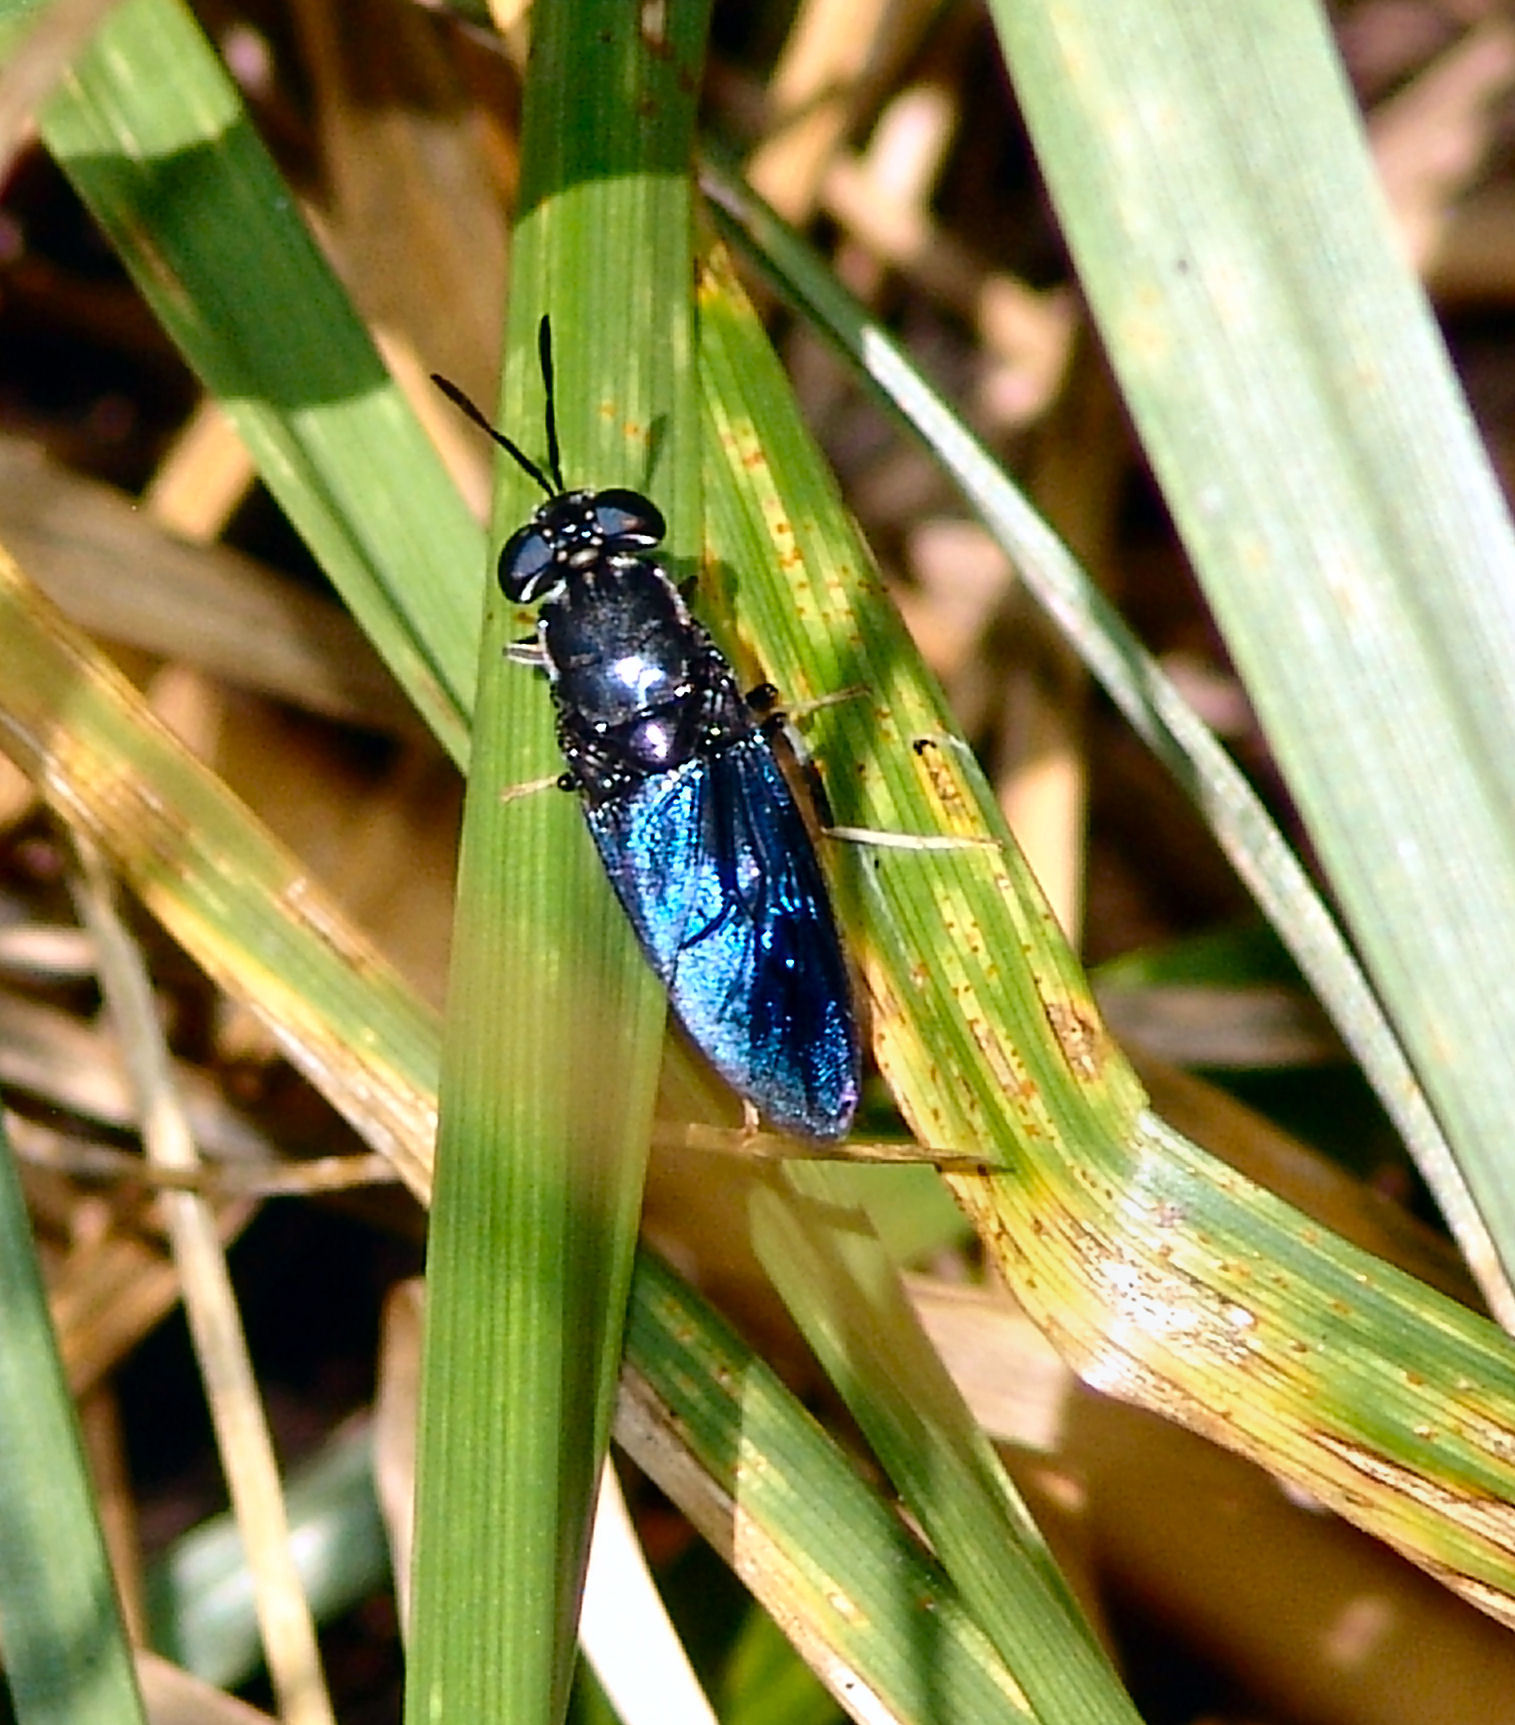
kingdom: Animalia
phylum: Arthropoda
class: Insecta
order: Diptera
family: Stratiomyidae
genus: Hermetia
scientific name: Hermetia illucens
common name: Black soldier fly
